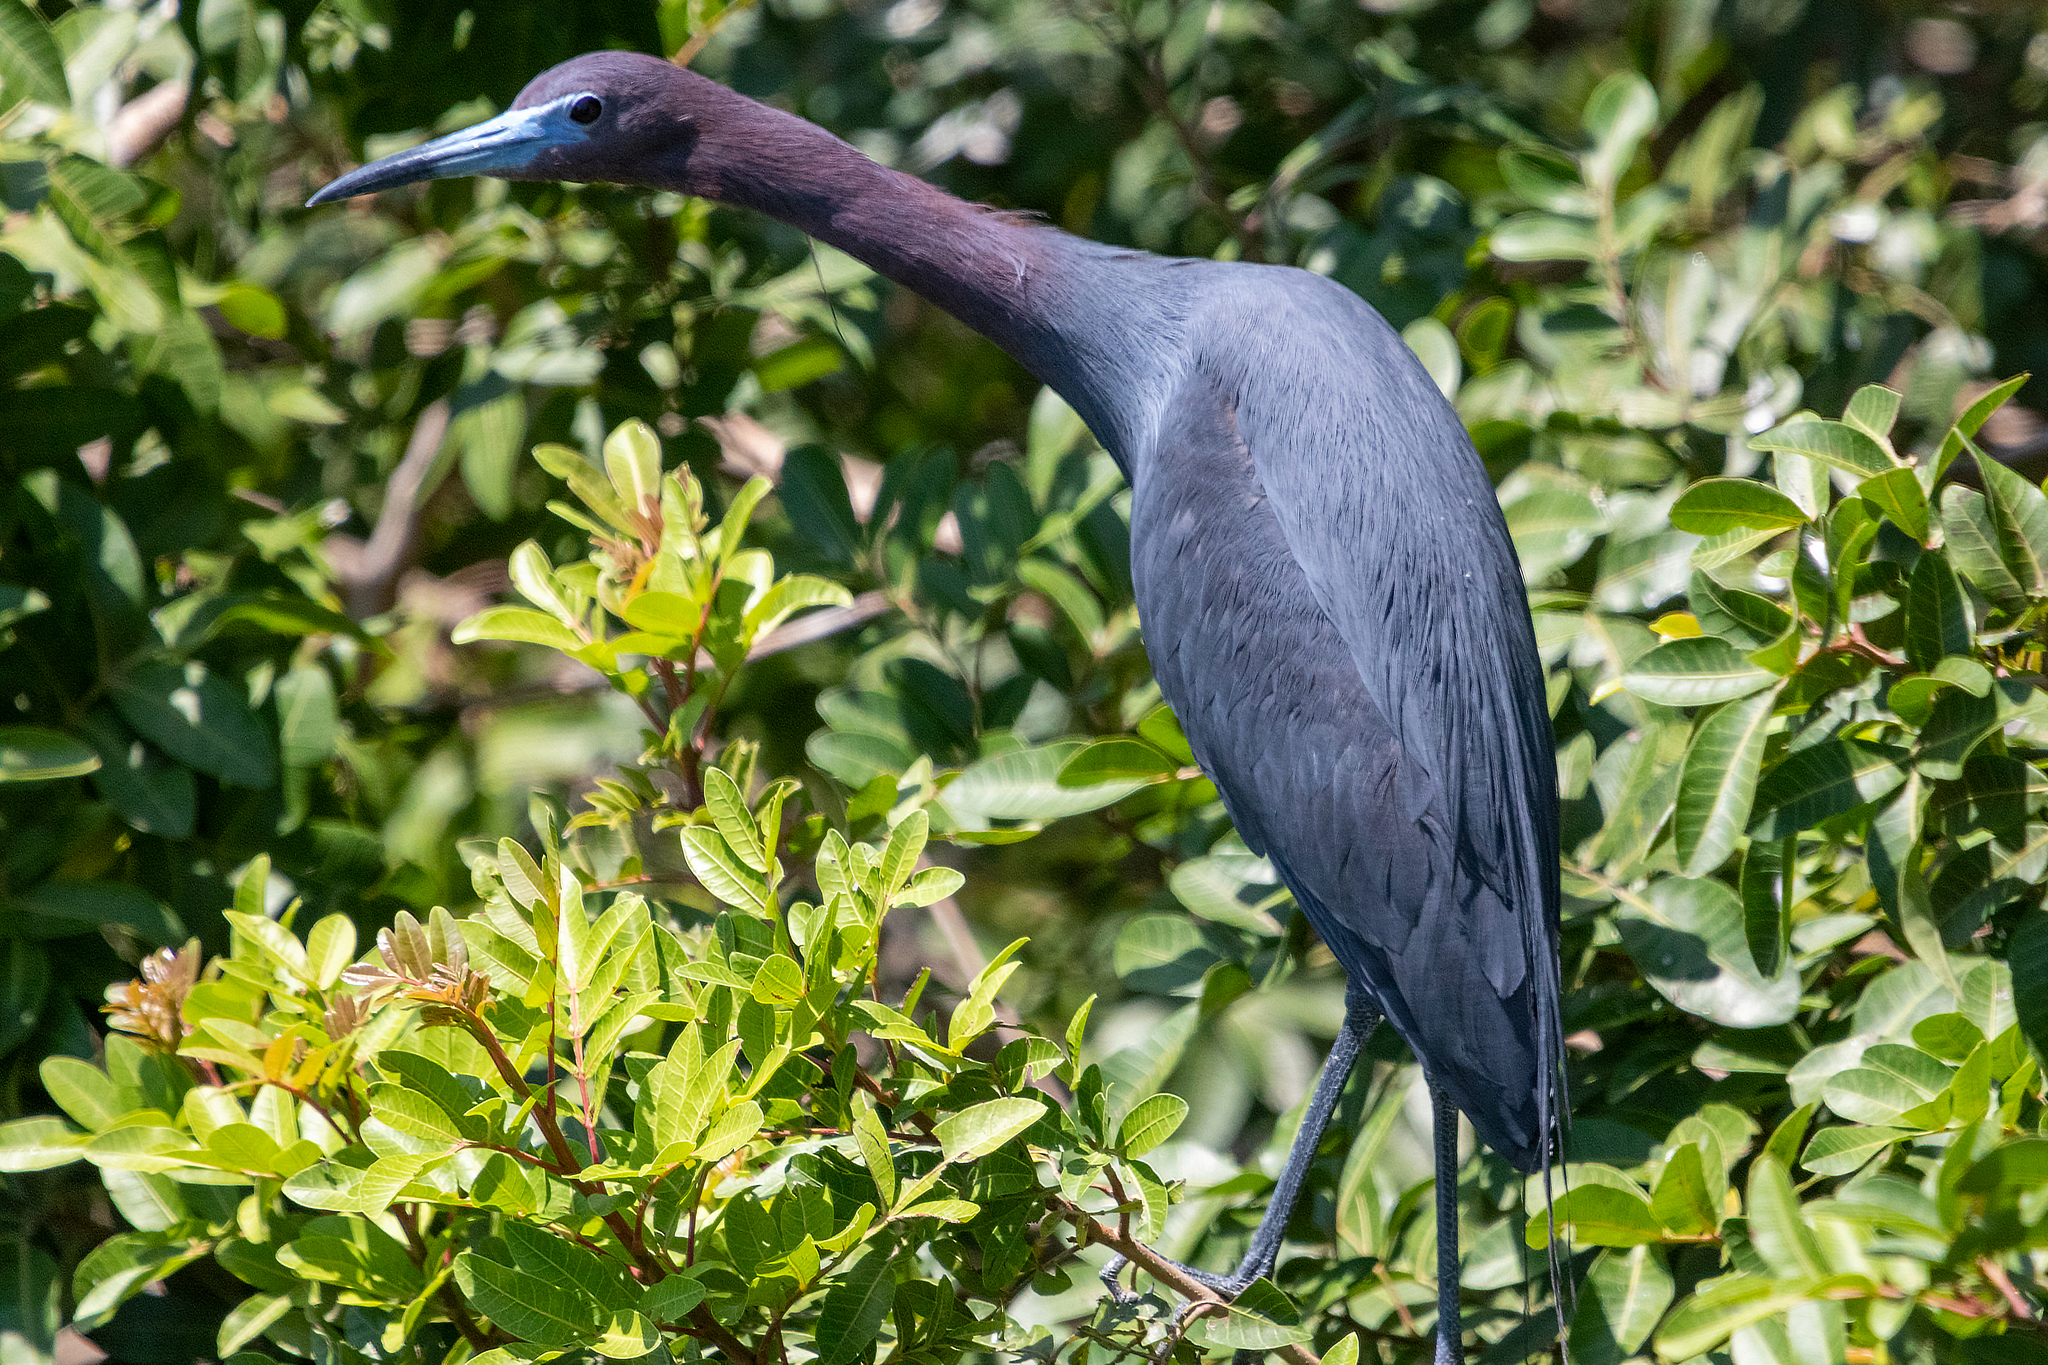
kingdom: Animalia
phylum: Chordata
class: Aves
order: Pelecaniformes
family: Ardeidae
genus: Egretta
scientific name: Egretta caerulea
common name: Little blue heron
